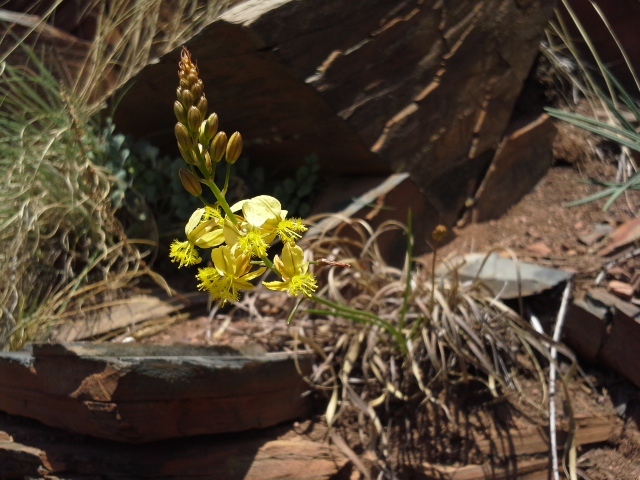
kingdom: Plantae
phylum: Tracheophyta
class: Liliopsida
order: Asparagales
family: Asphodelaceae
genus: Bulbine
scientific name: Bulbine favosa
